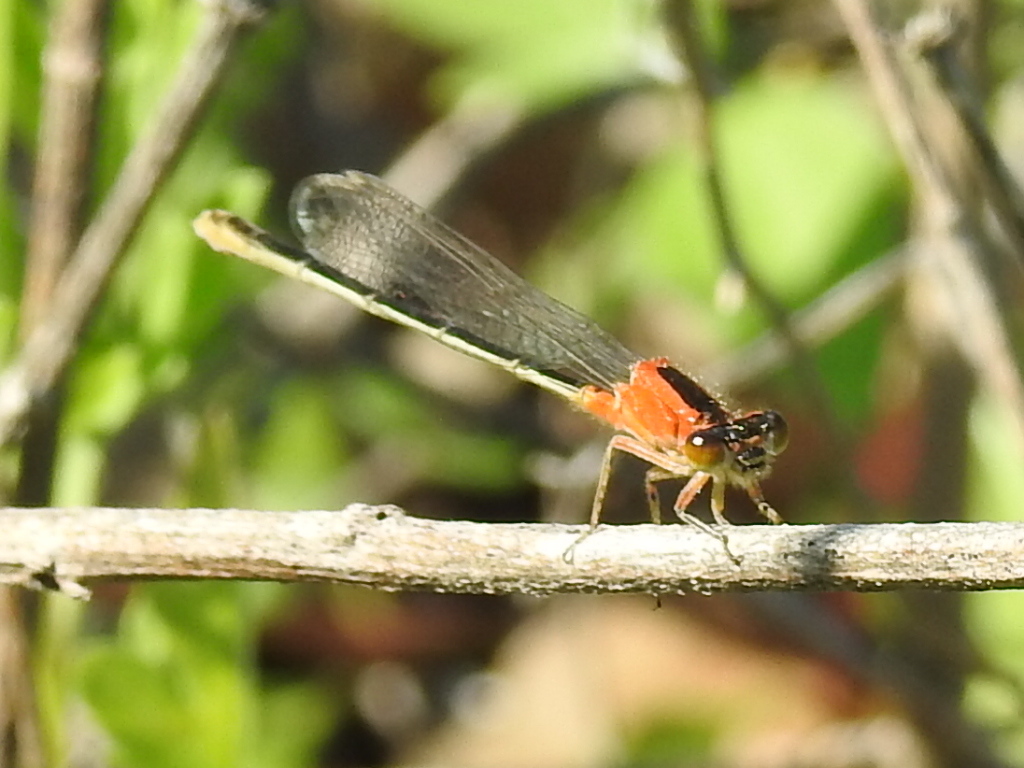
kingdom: Animalia
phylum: Arthropoda
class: Insecta
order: Odonata
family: Coenagrionidae
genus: Ischnura
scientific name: Ischnura ramburii
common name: Rambur's forktail
